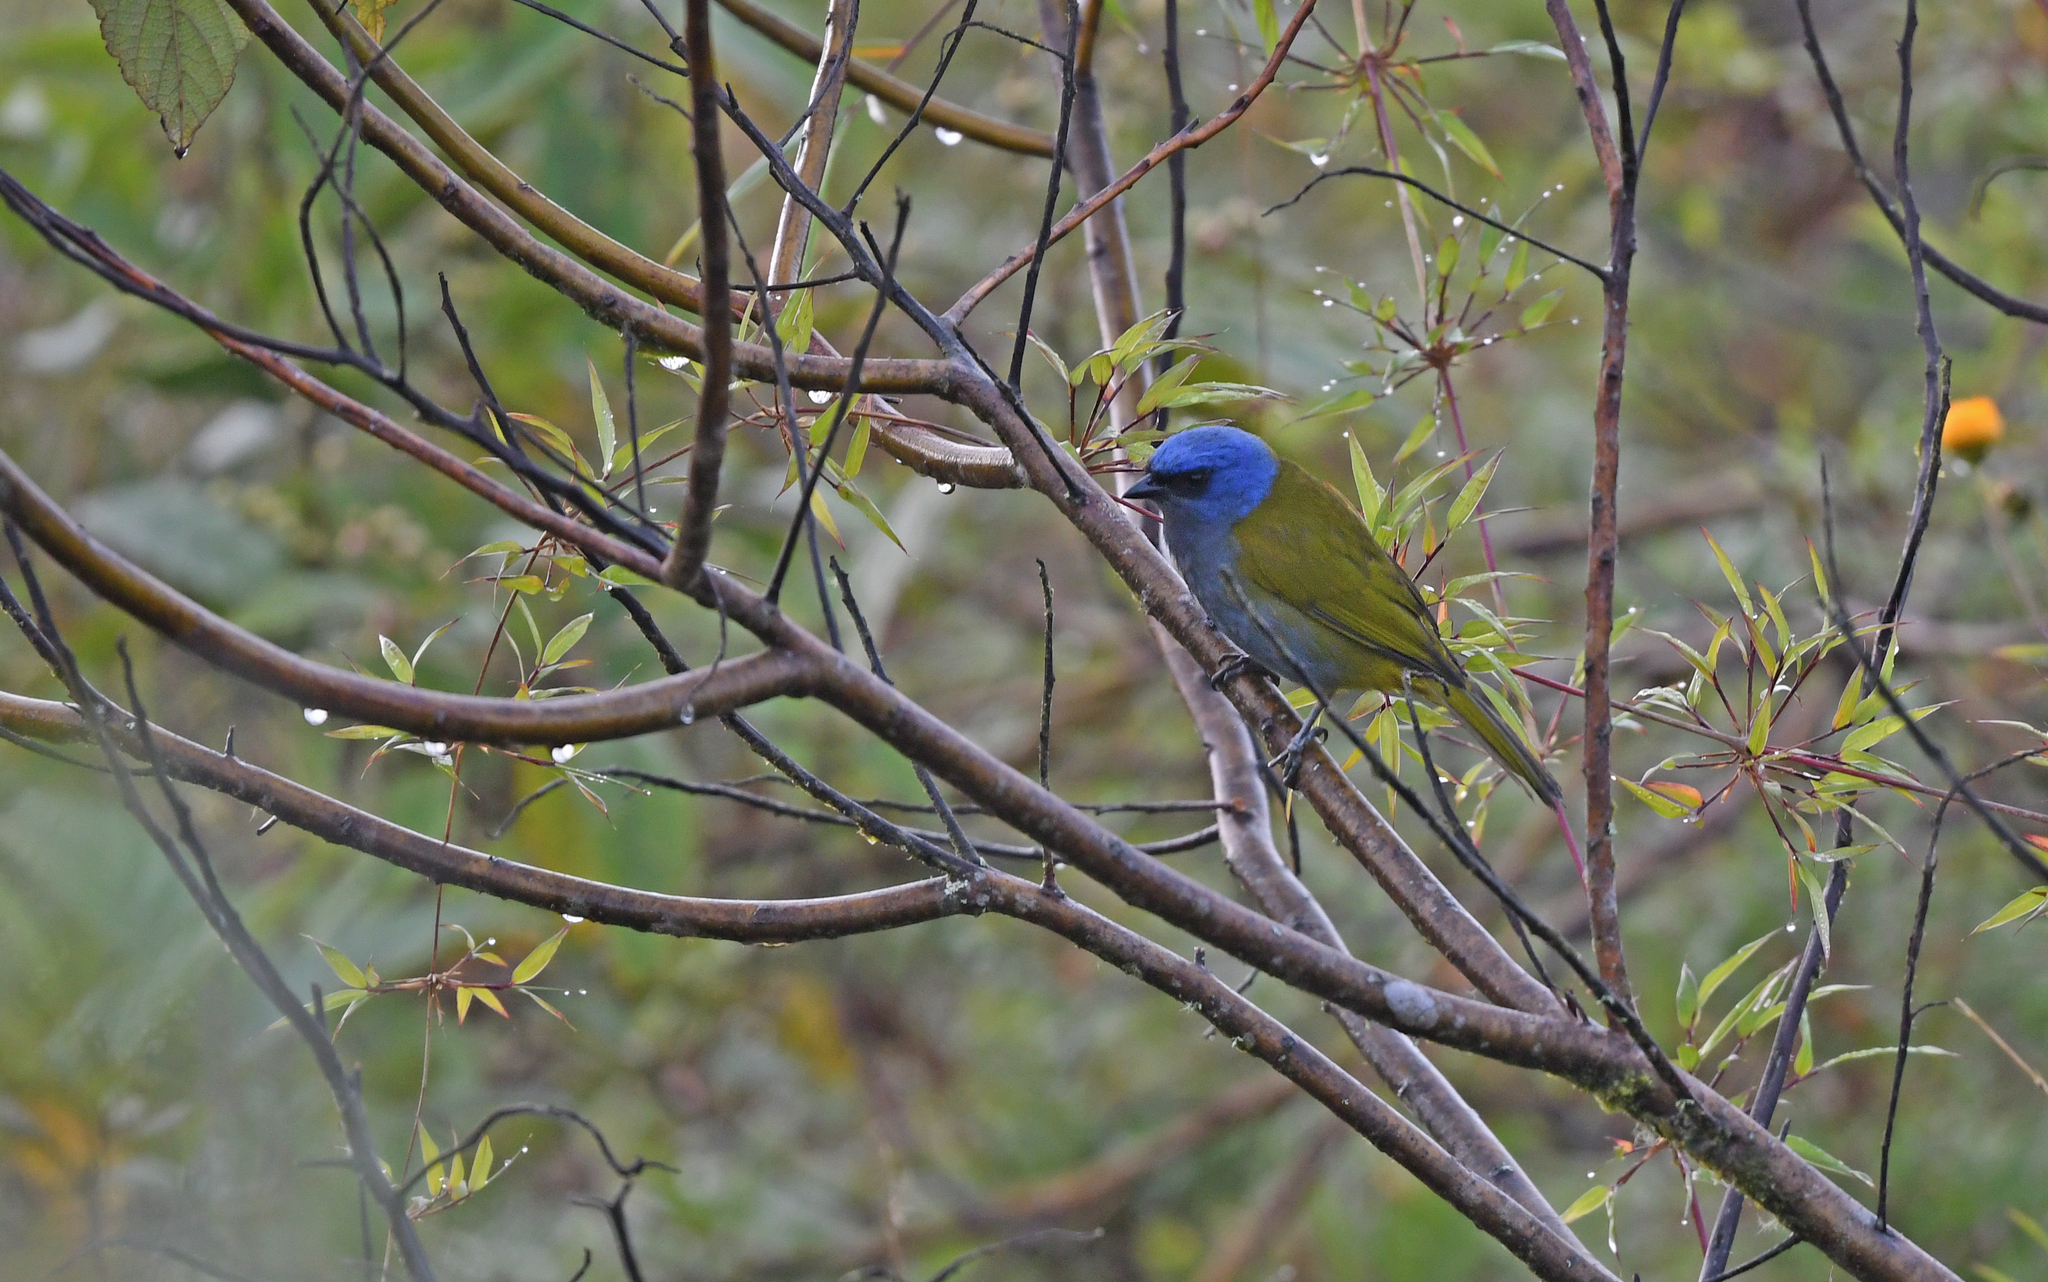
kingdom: Animalia
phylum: Chordata
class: Aves
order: Passeriformes
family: Thraupidae
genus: Sporathraupis
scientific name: Sporathraupis cyanocephala
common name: Blue-capped tanager
